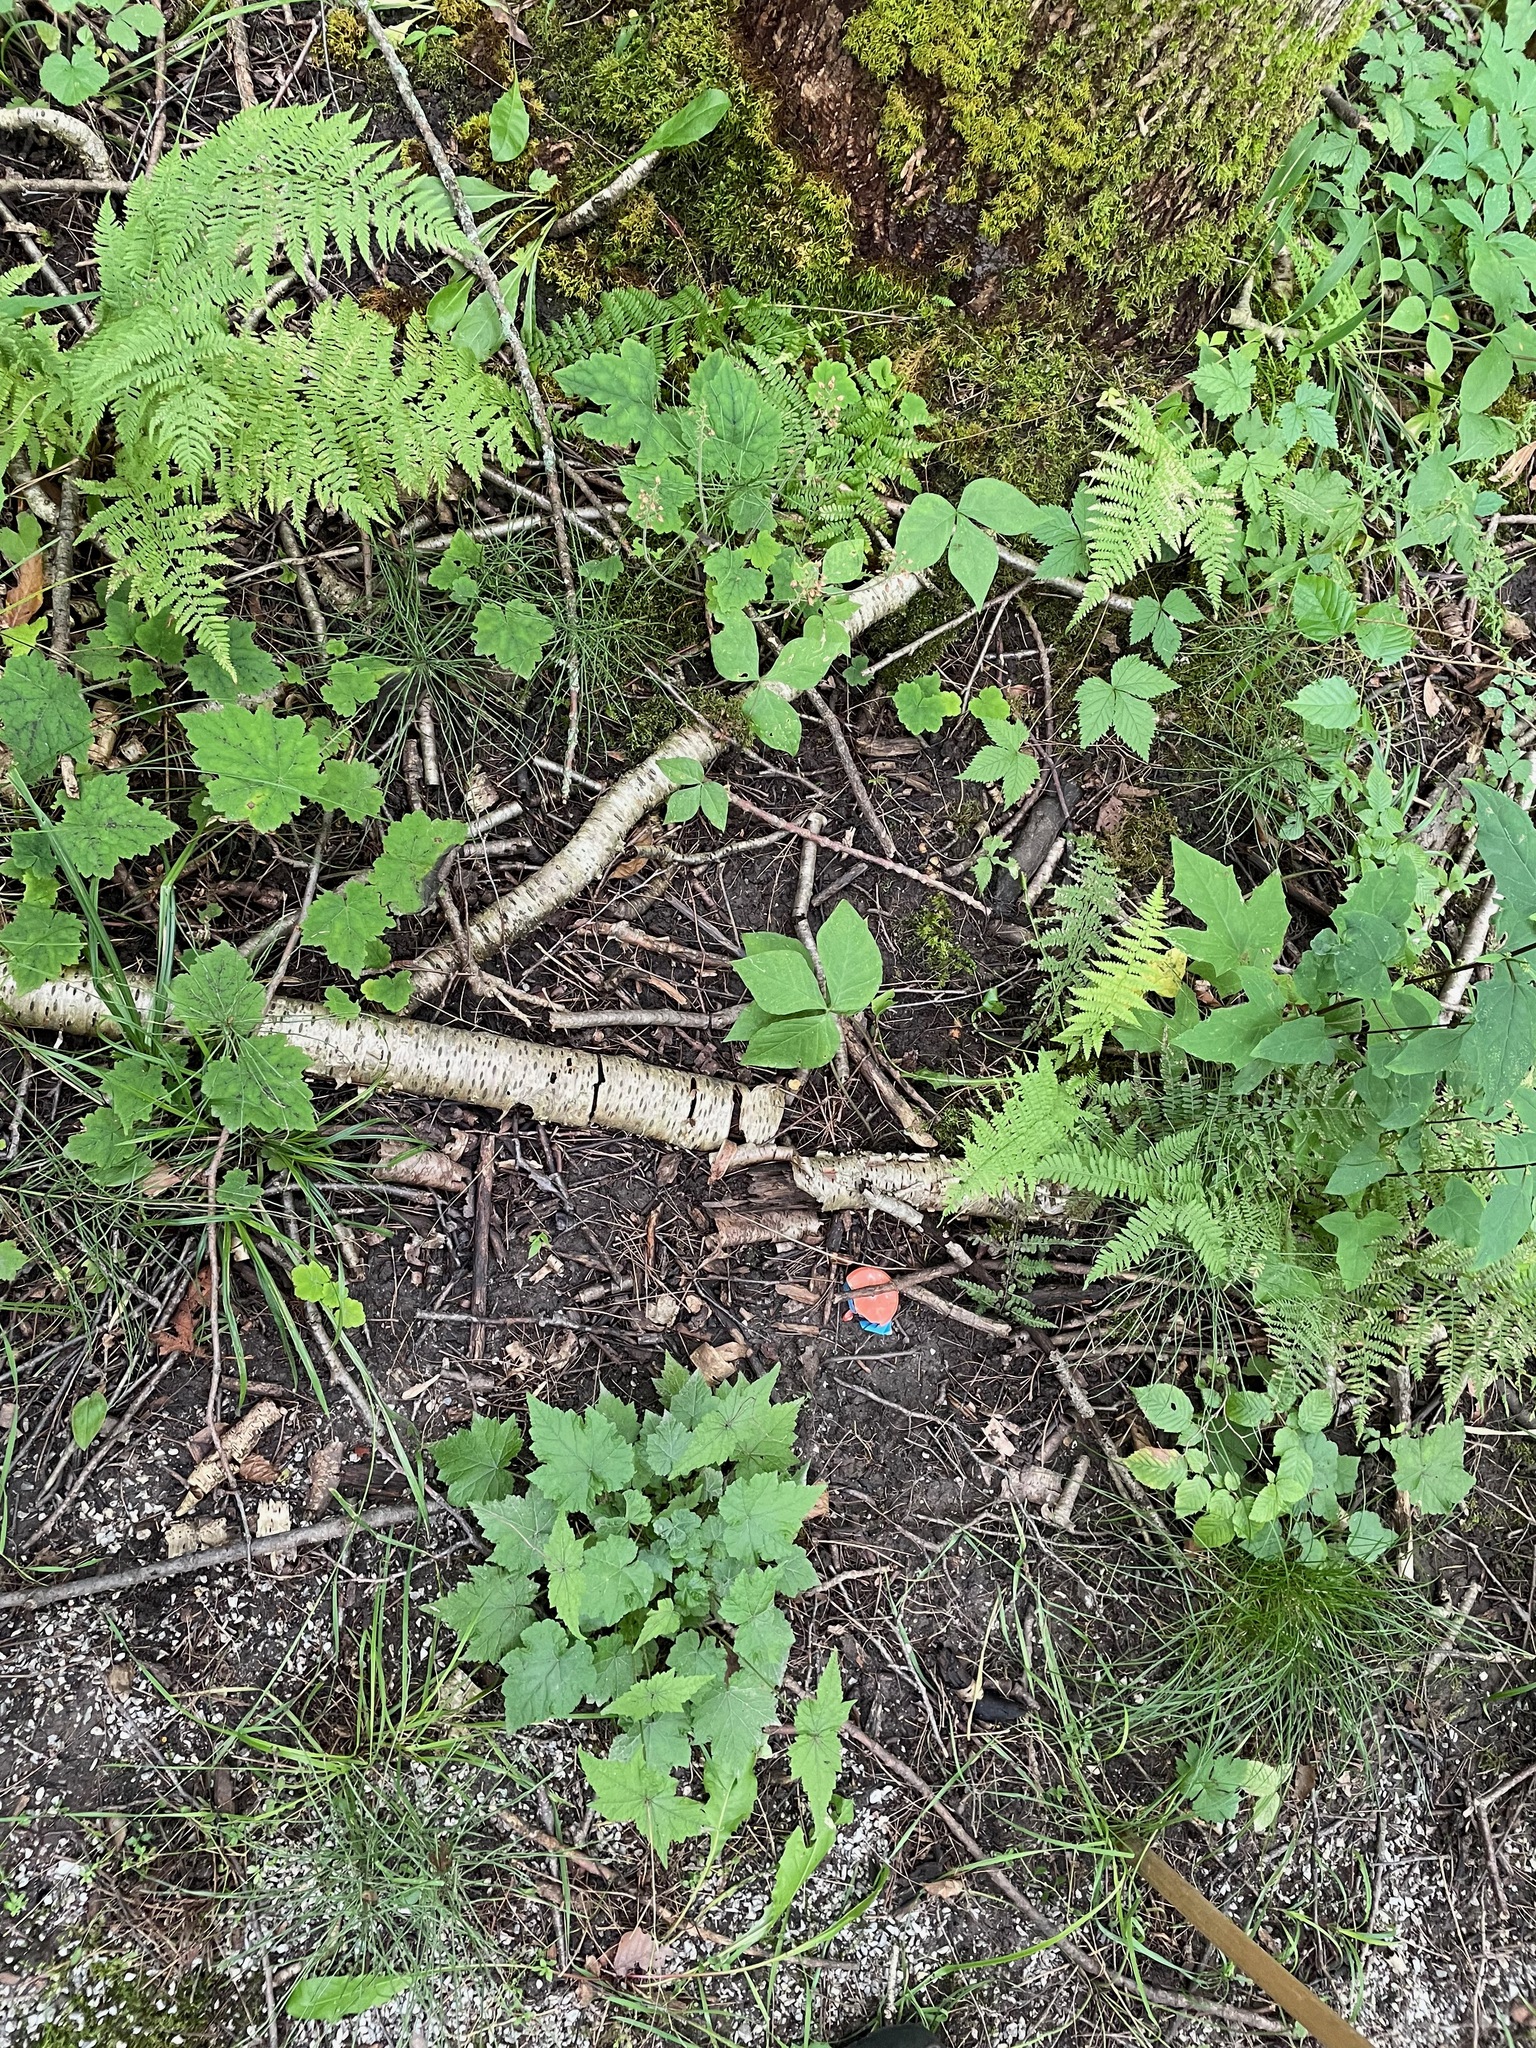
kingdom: Plantae
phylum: Tracheophyta
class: Magnoliopsida
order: Saxifragales
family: Saxifragaceae
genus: Tiarella
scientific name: Tiarella stolonifera
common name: Stoloniferous foamflower
